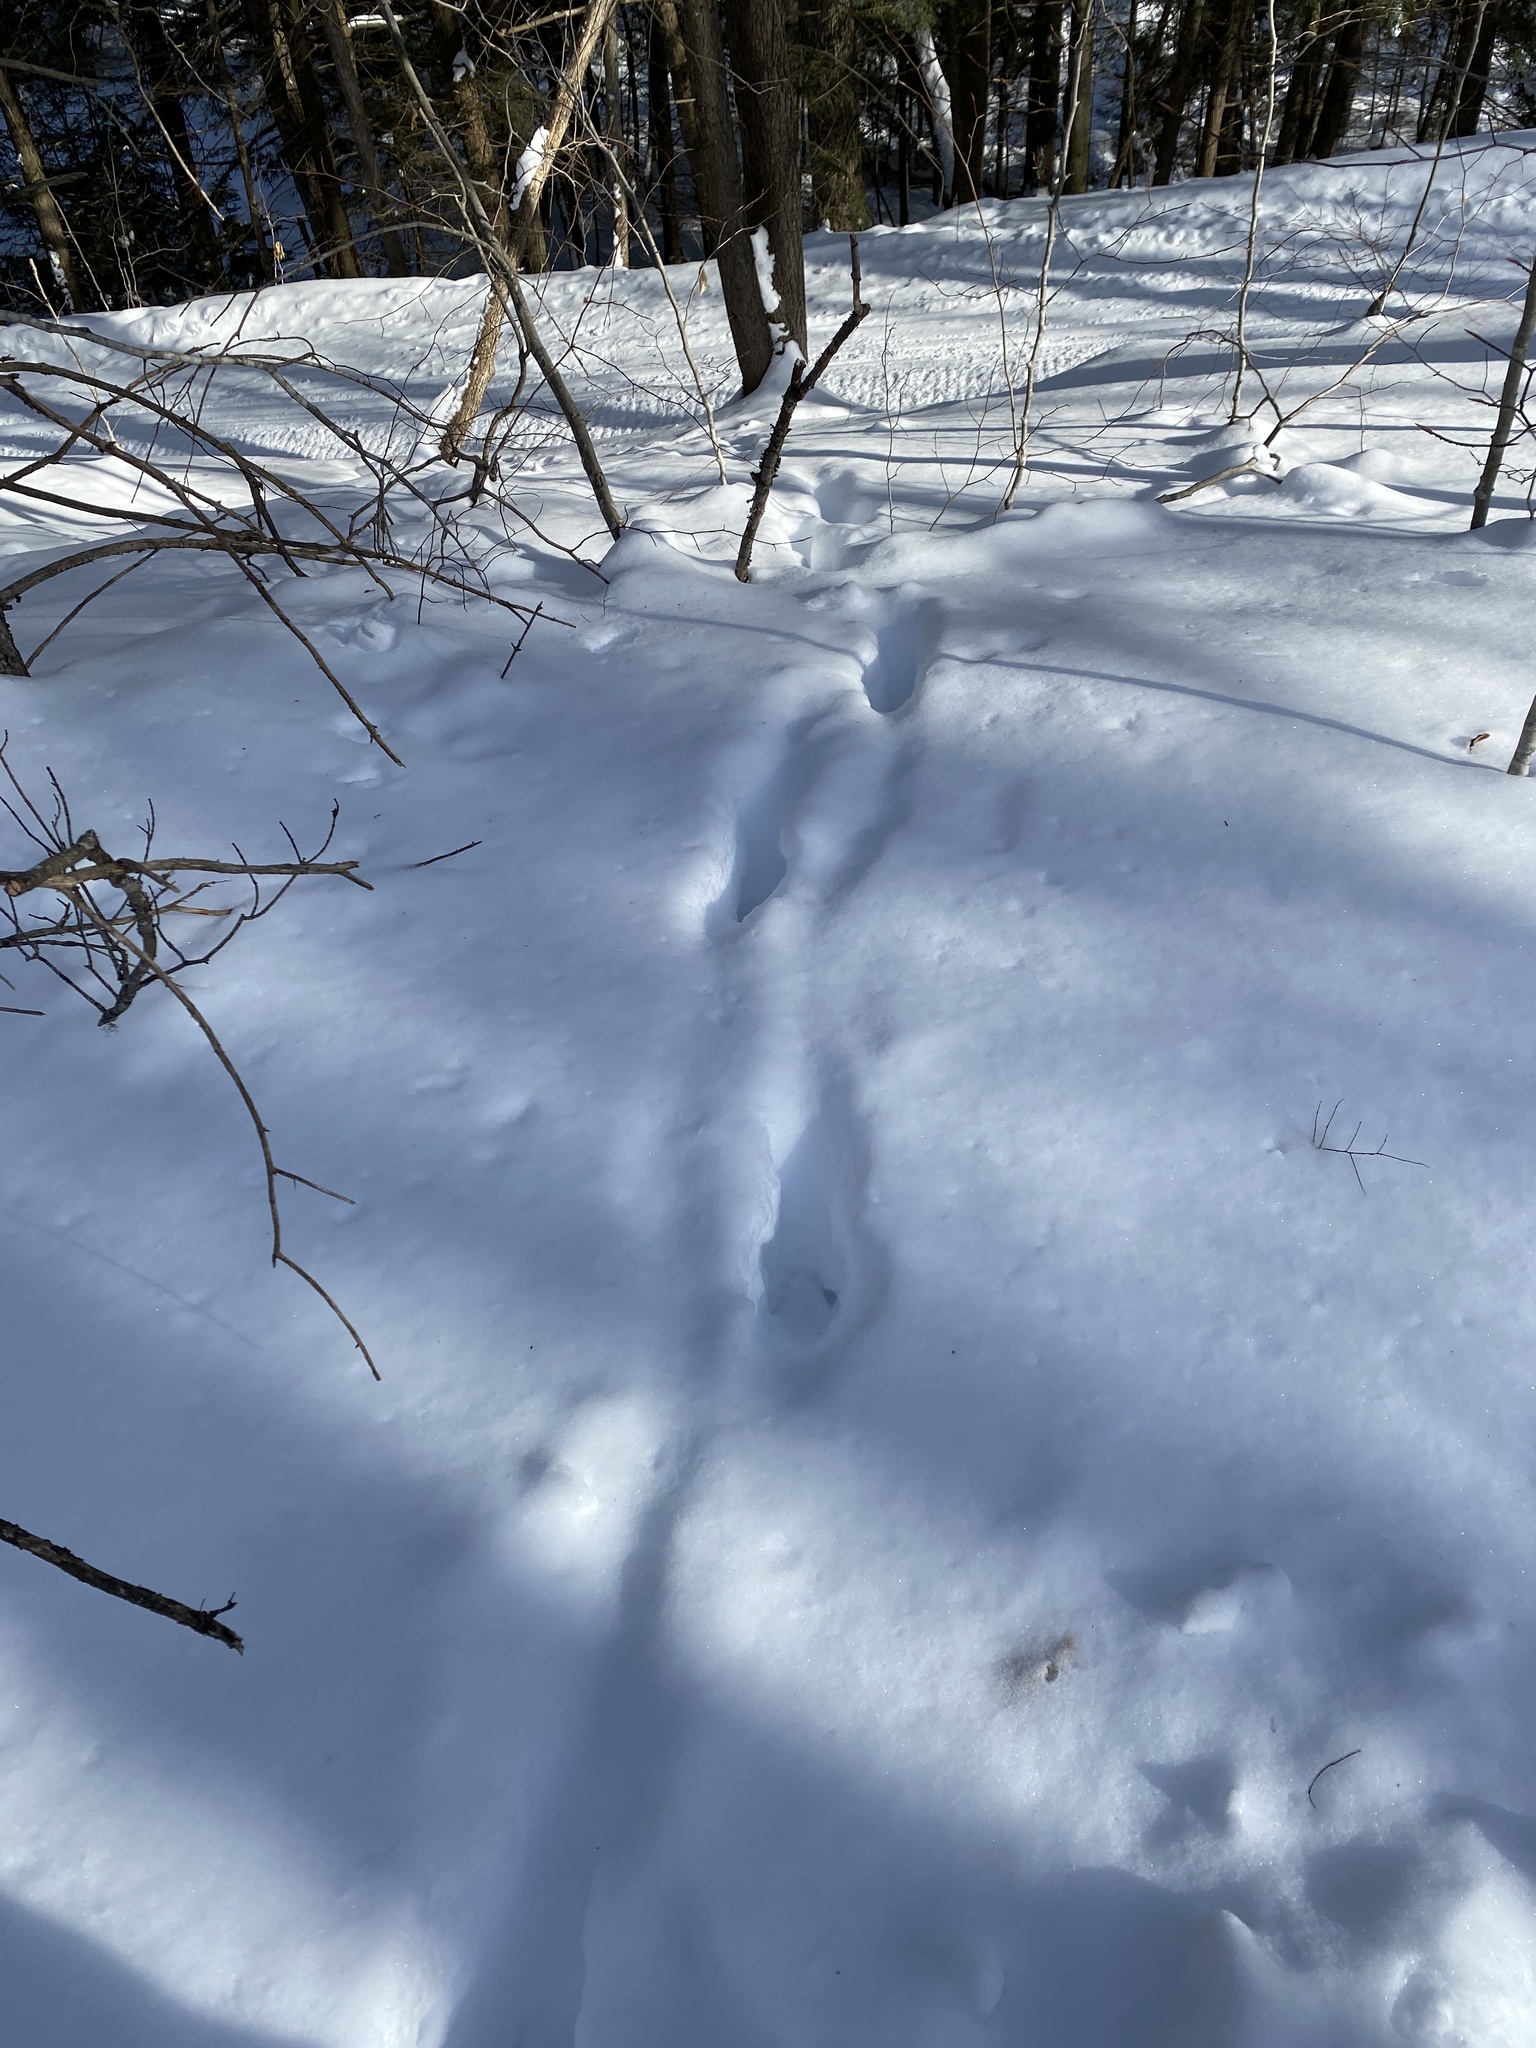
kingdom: Animalia
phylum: Chordata
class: Mammalia
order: Artiodactyla
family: Cervidae
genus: Odocoileus
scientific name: Odocoileus virginianus
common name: White-tailed deer
